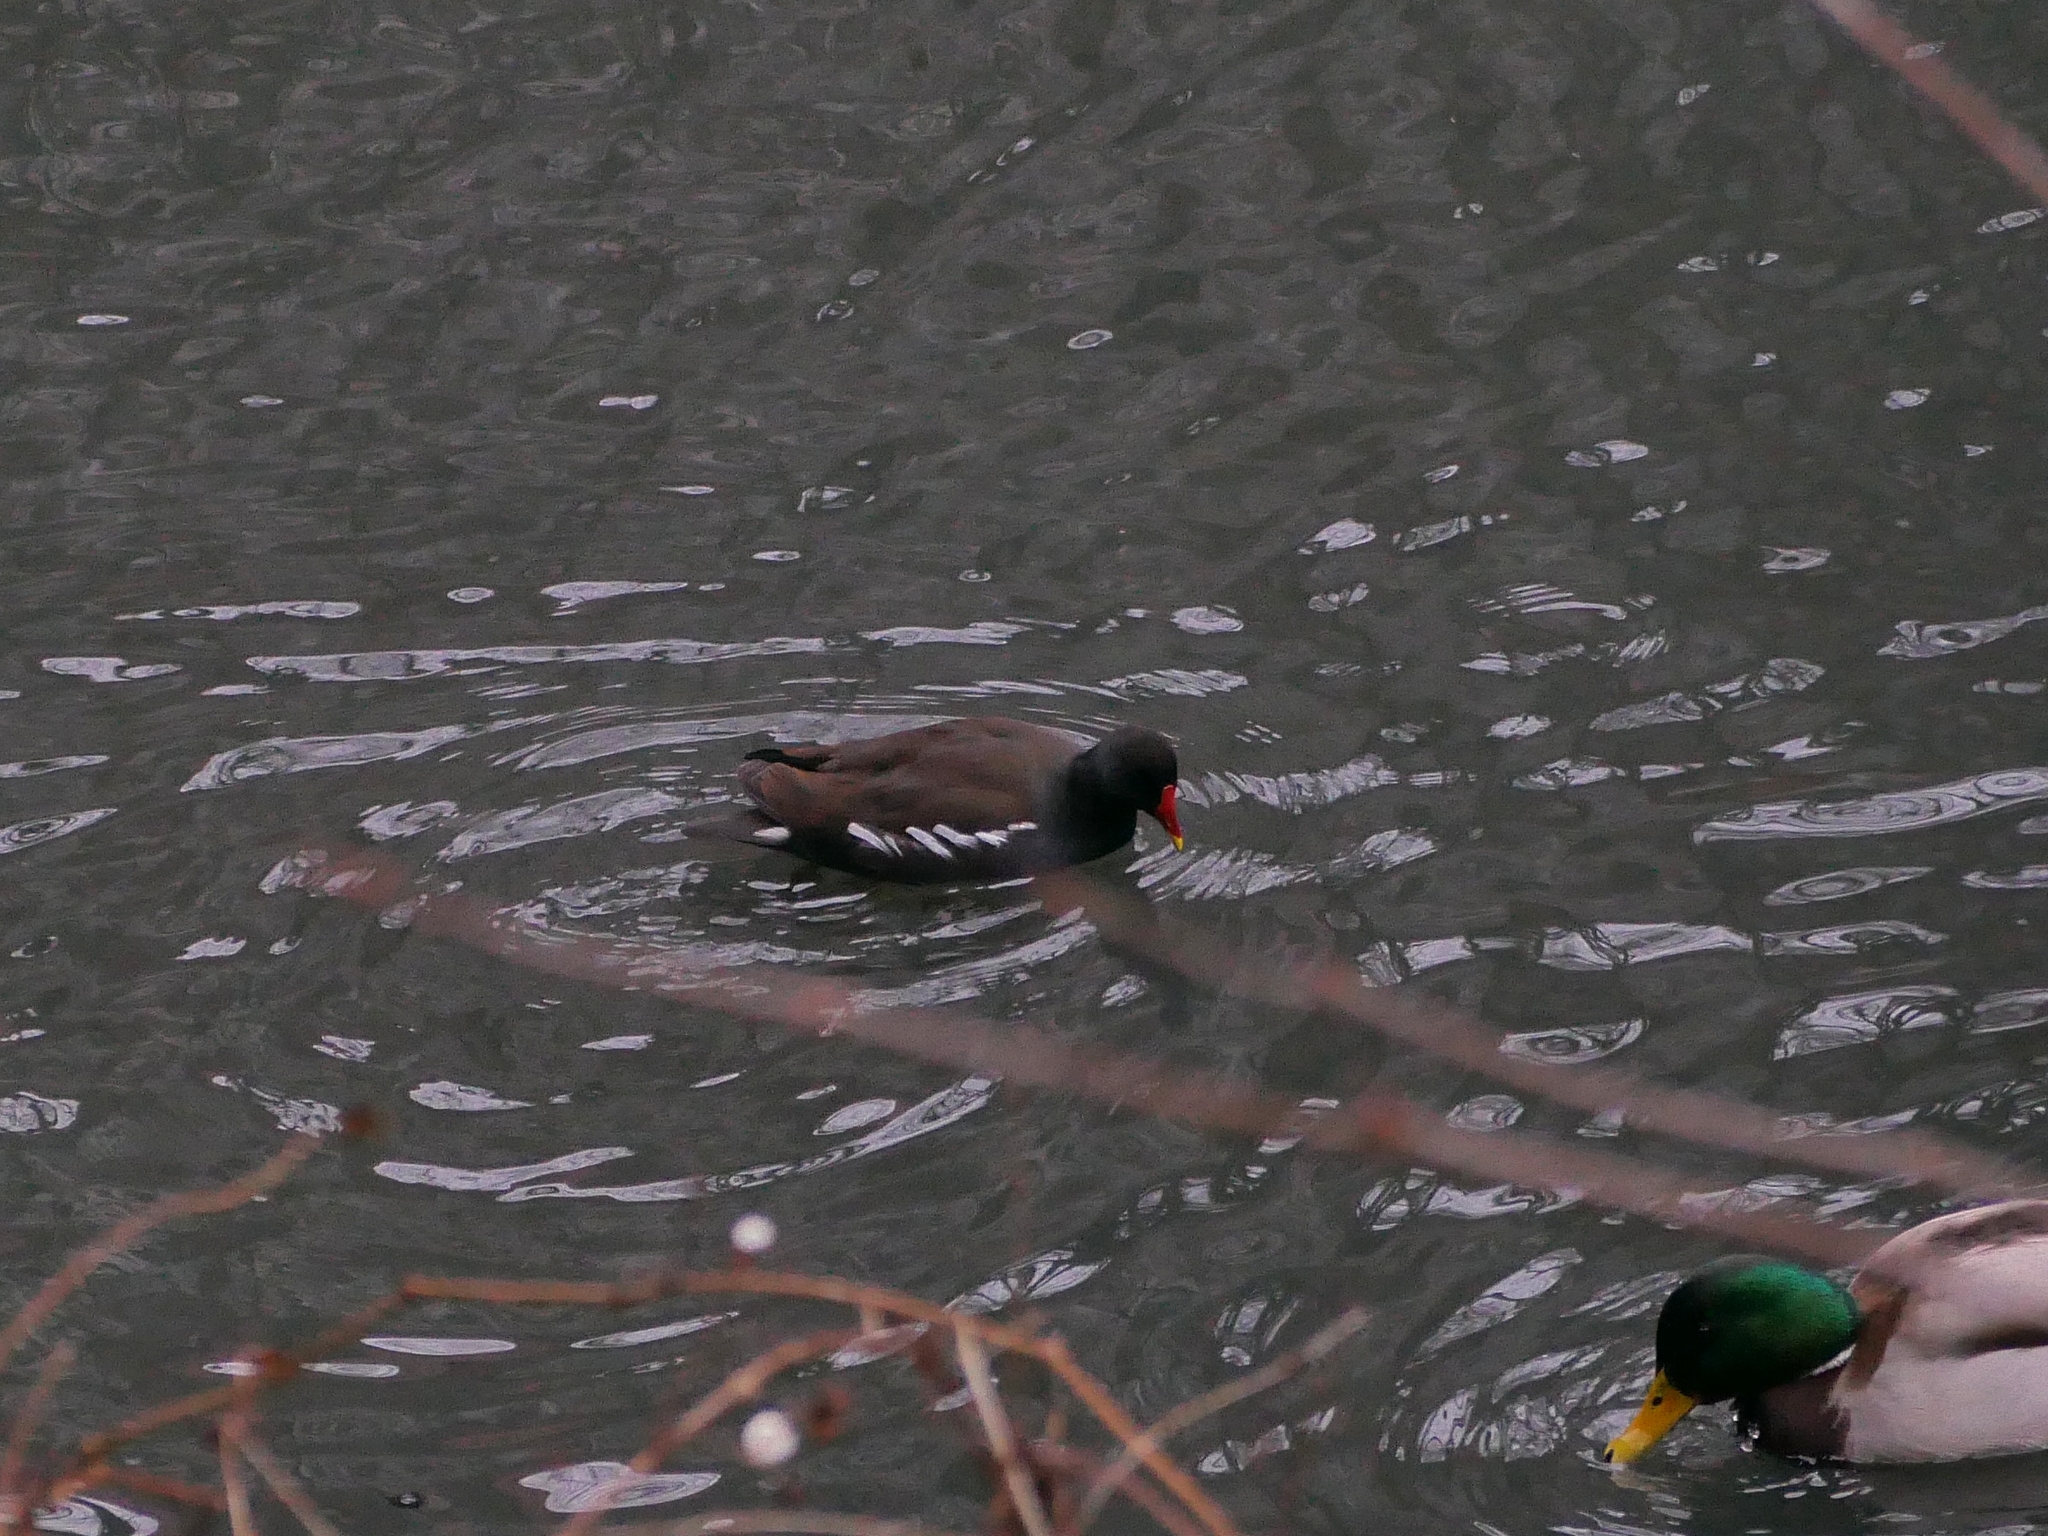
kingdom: Animalia
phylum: Chordata
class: Aves
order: Gruiformes
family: Rallidae
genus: Gallinula
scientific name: Gallinula chloropus
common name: Common moorhen
